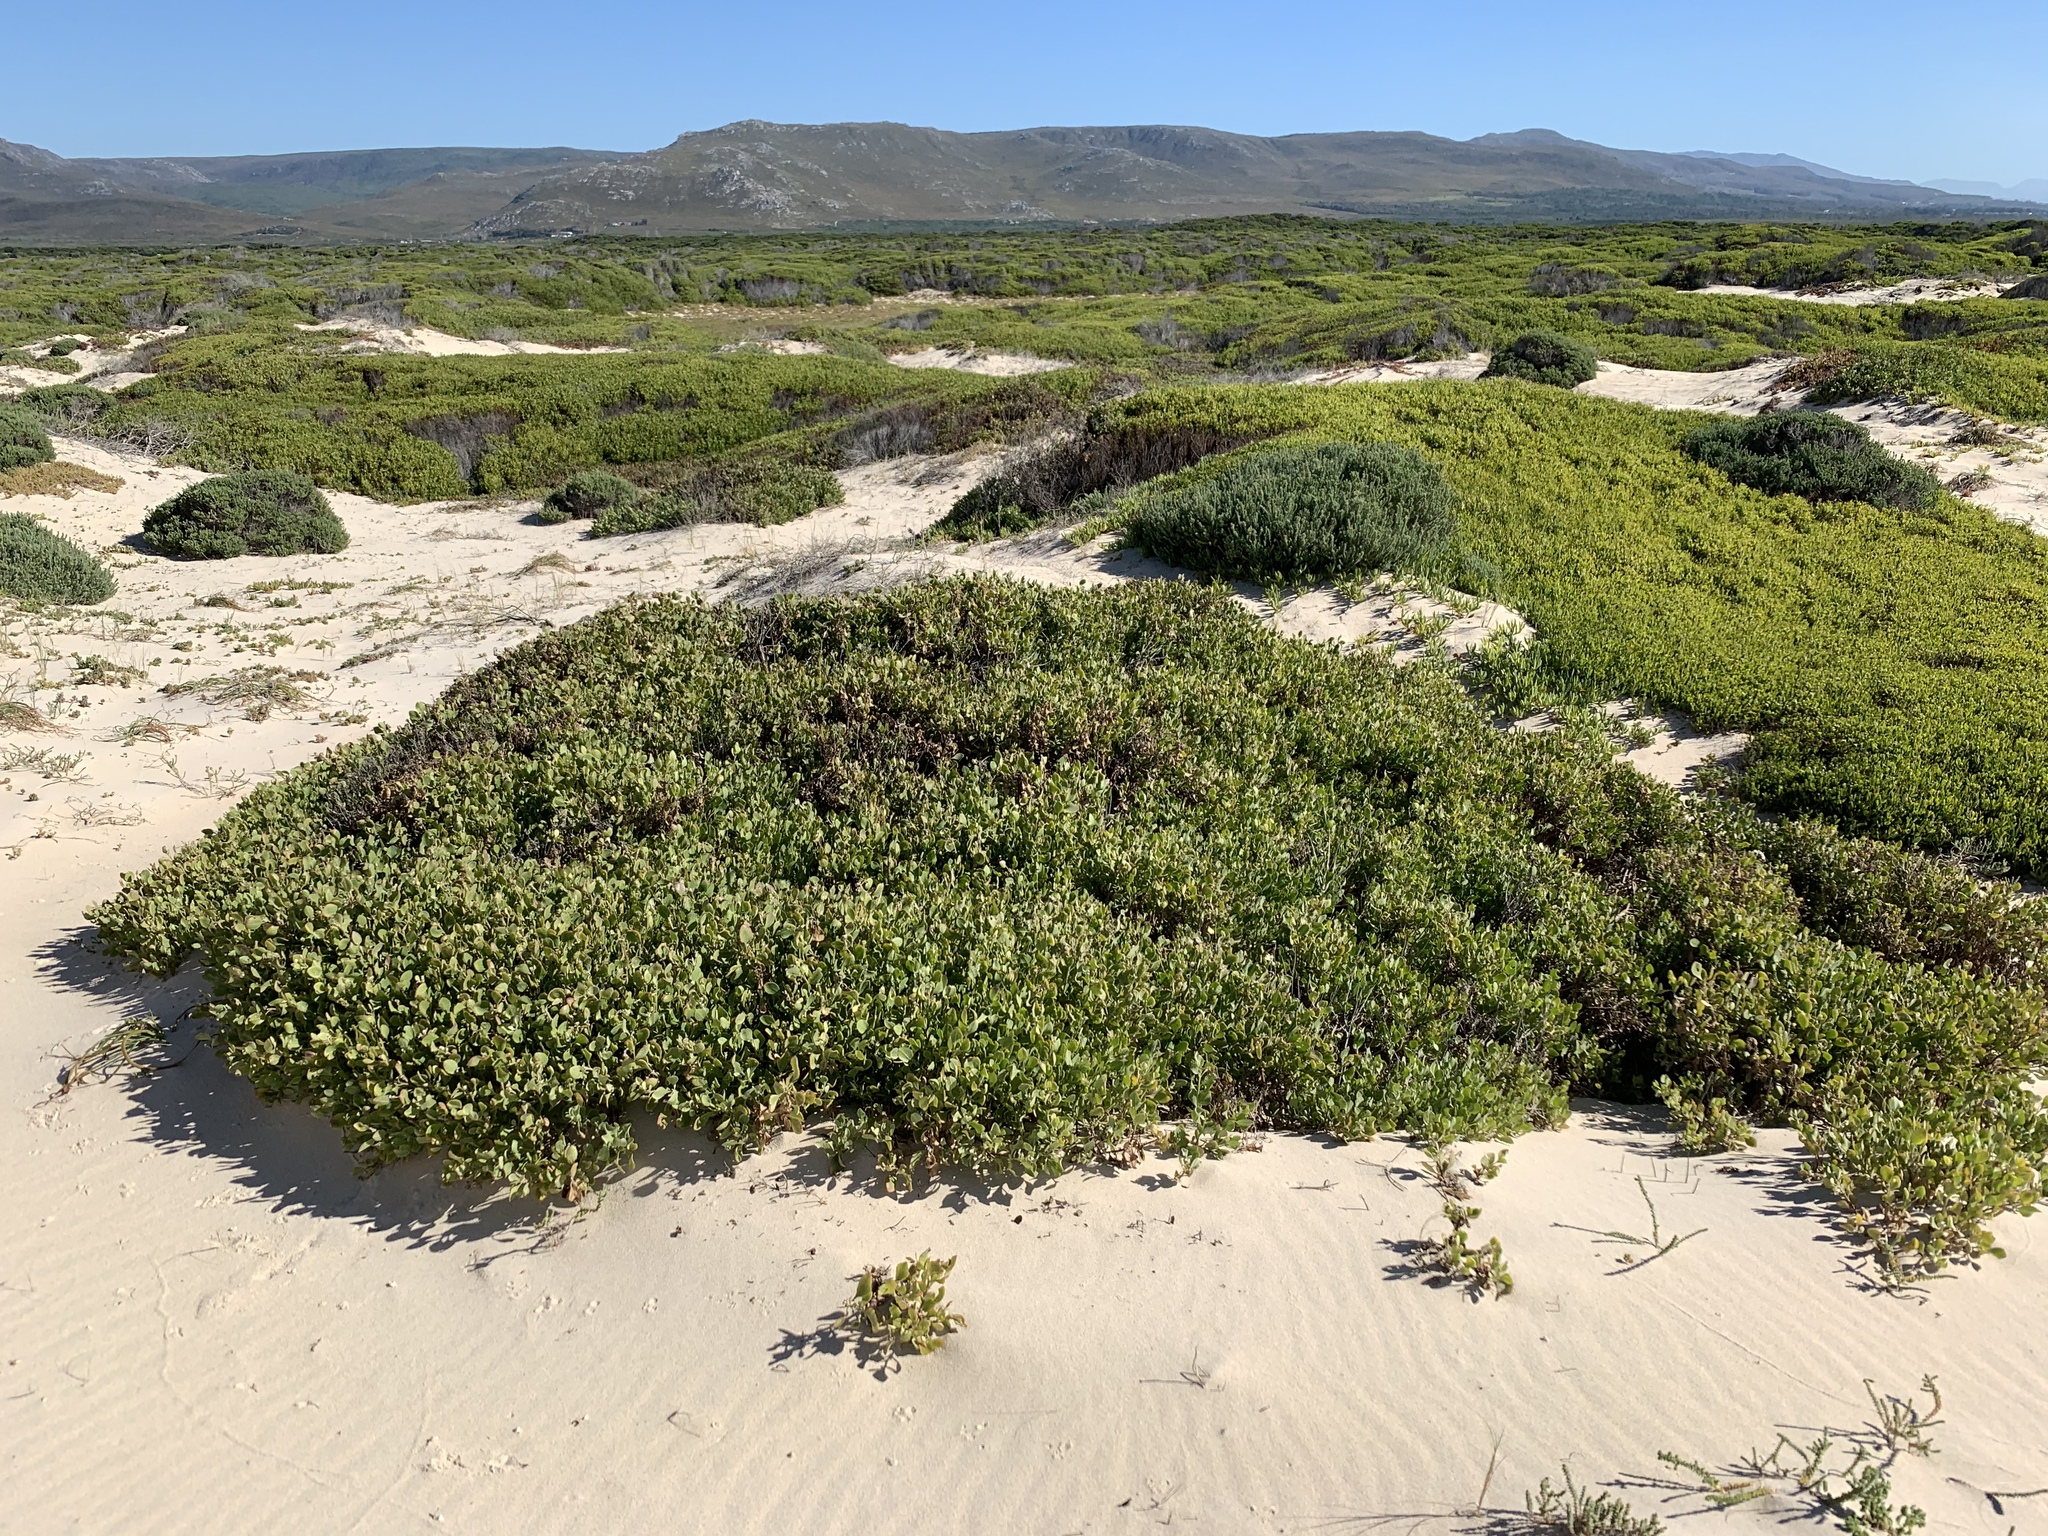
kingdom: Plantae
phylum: Tracheophyta
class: Magnoliopsida
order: Asterales
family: Asteraceae
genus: Osteospermum
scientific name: Osteospermum moniliferum
